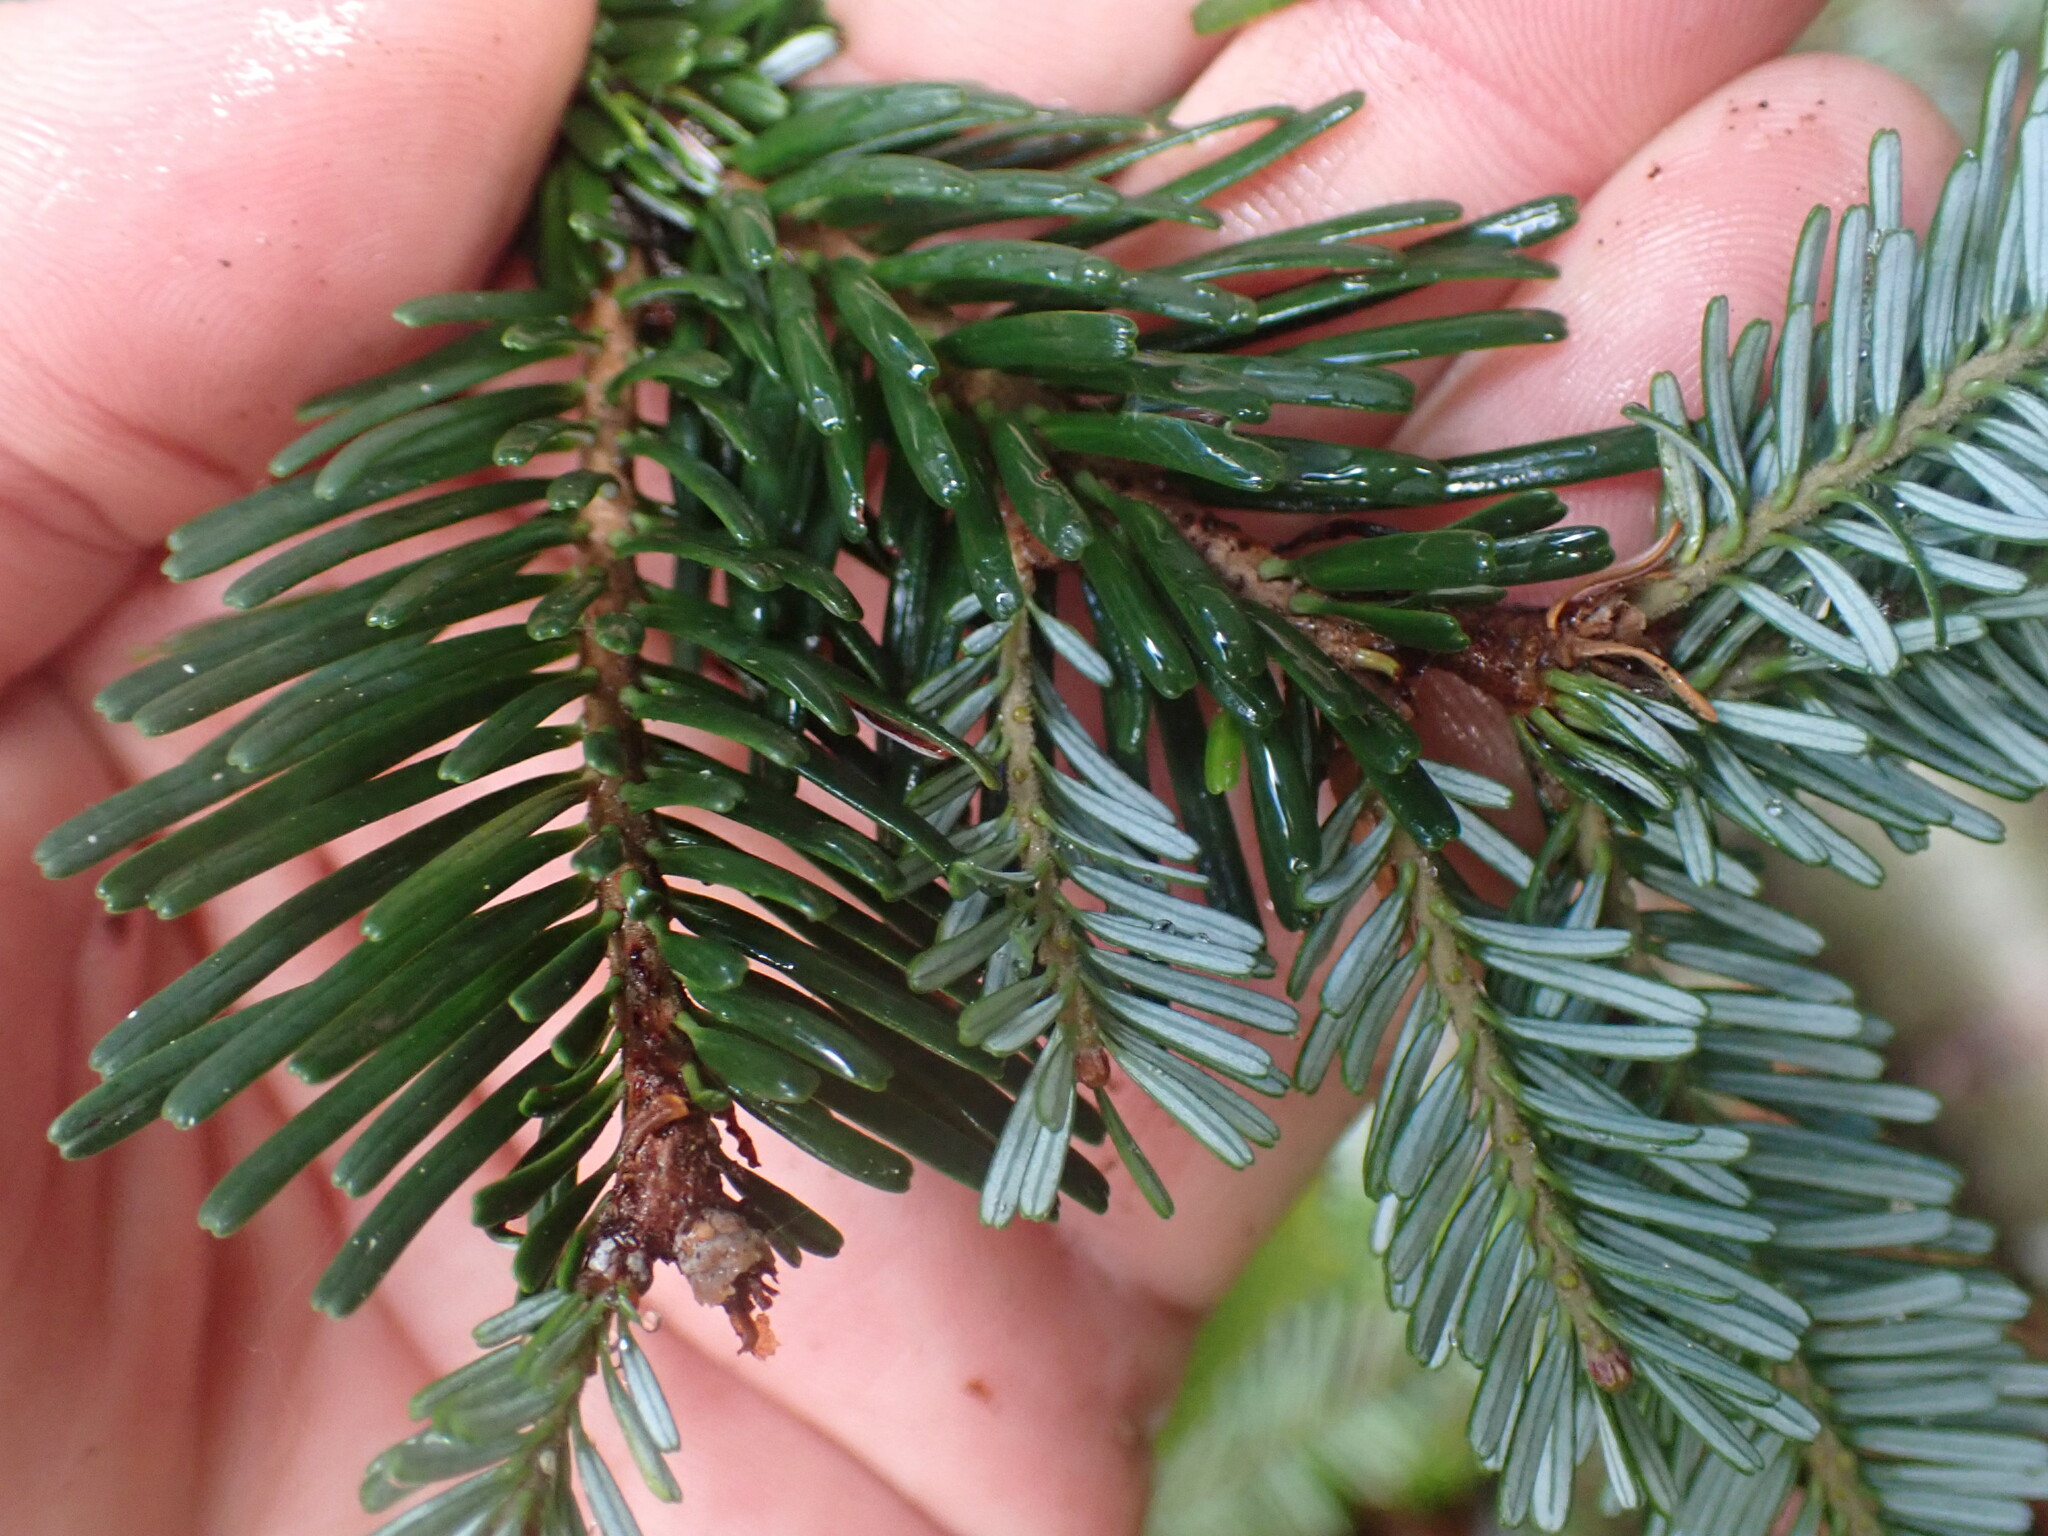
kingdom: Plantae
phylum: Tracheophyta
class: Pinopsida
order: Pinales
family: Pinaceae
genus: Abies
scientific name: Abies amabilis
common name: Pacific silver fir
